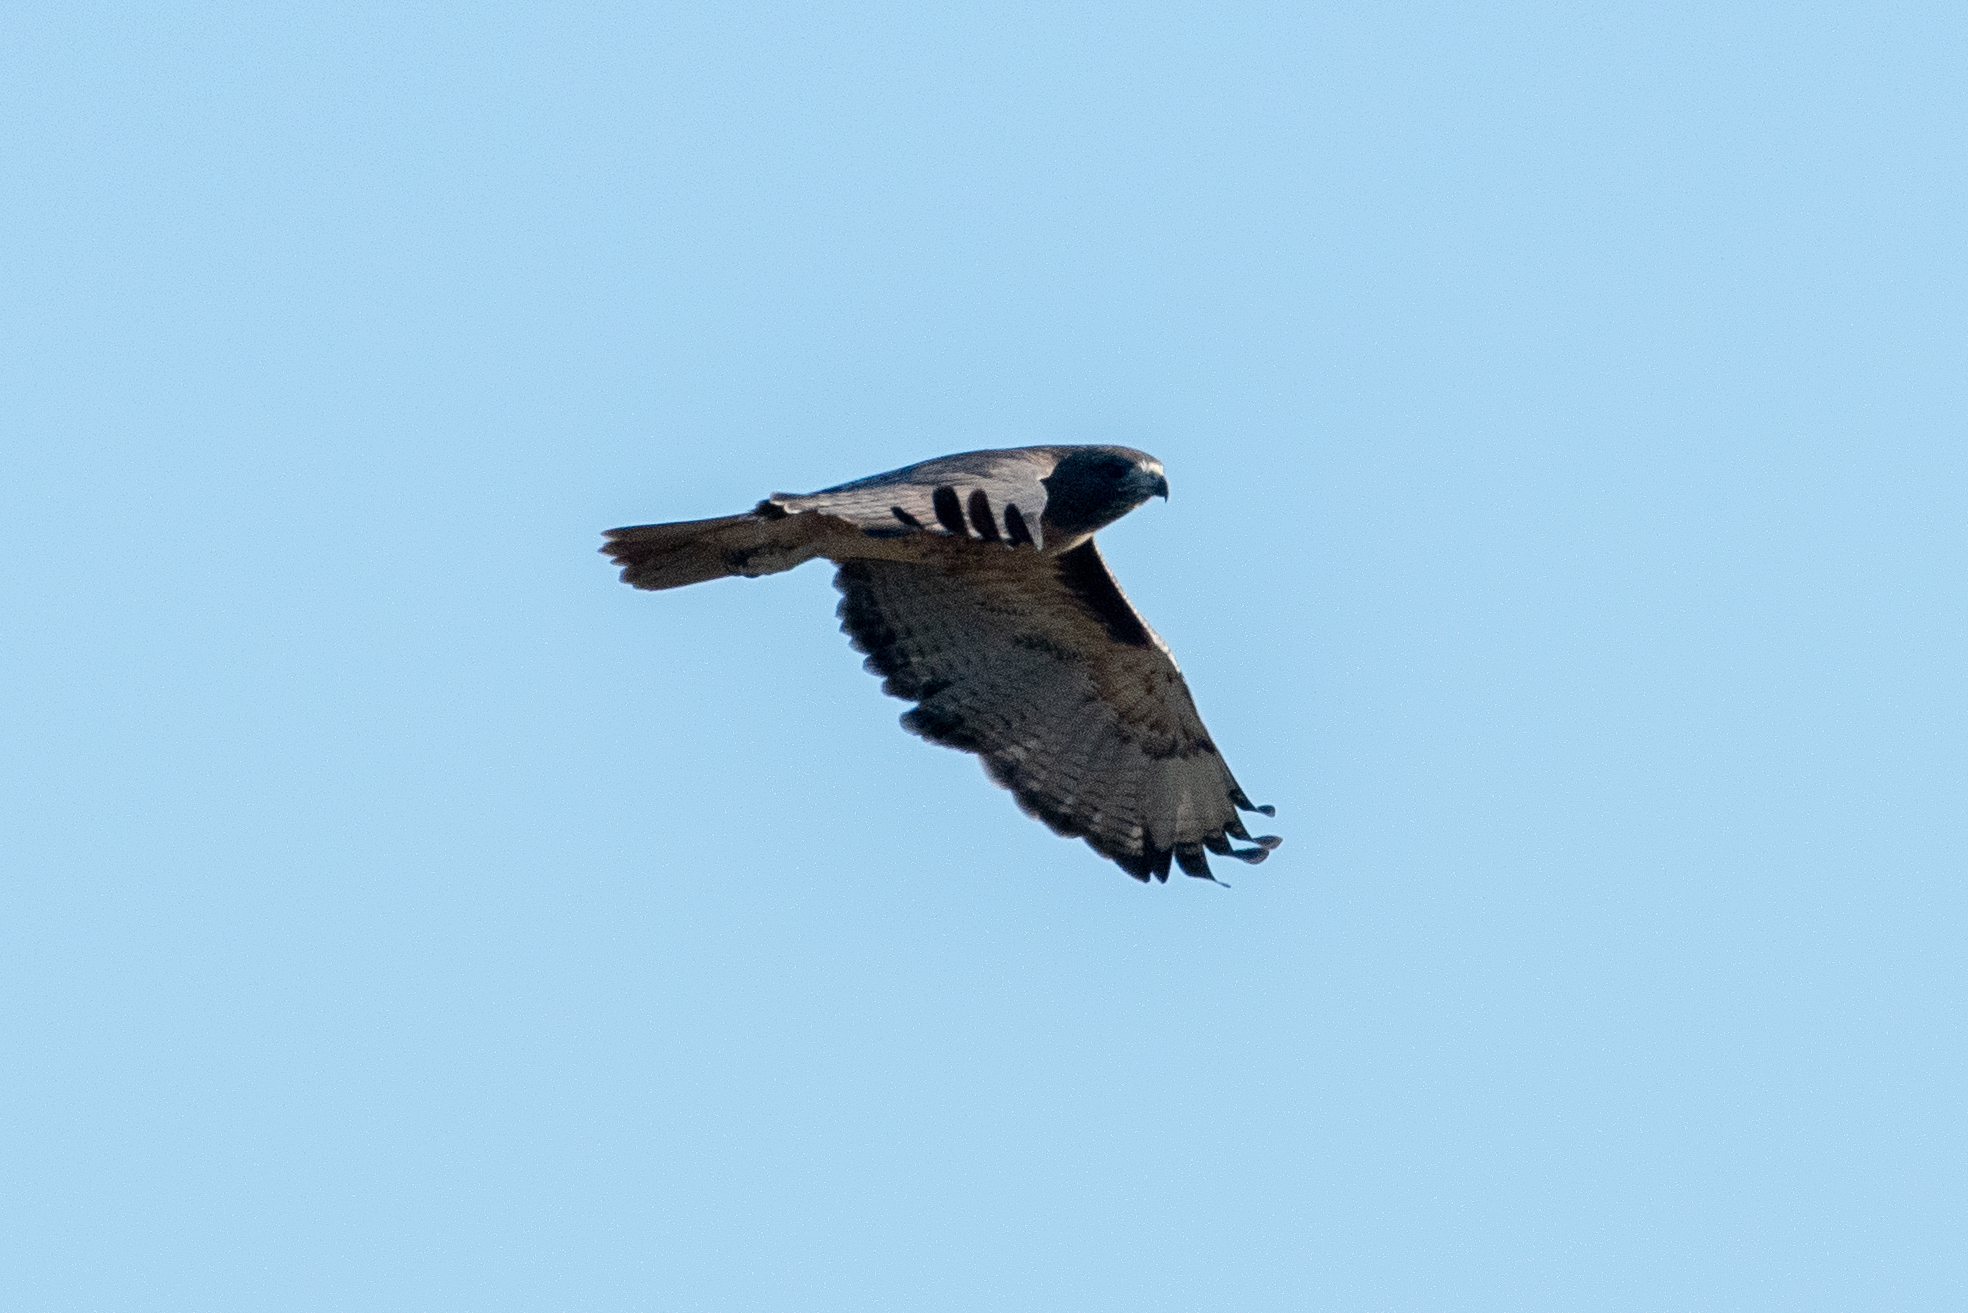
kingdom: Animalia
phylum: Chordata
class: Aves
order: Accipitriformes
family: Accipitridae
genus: Buteo
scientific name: Buteo jamaicensis
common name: Red-tailed hawk
